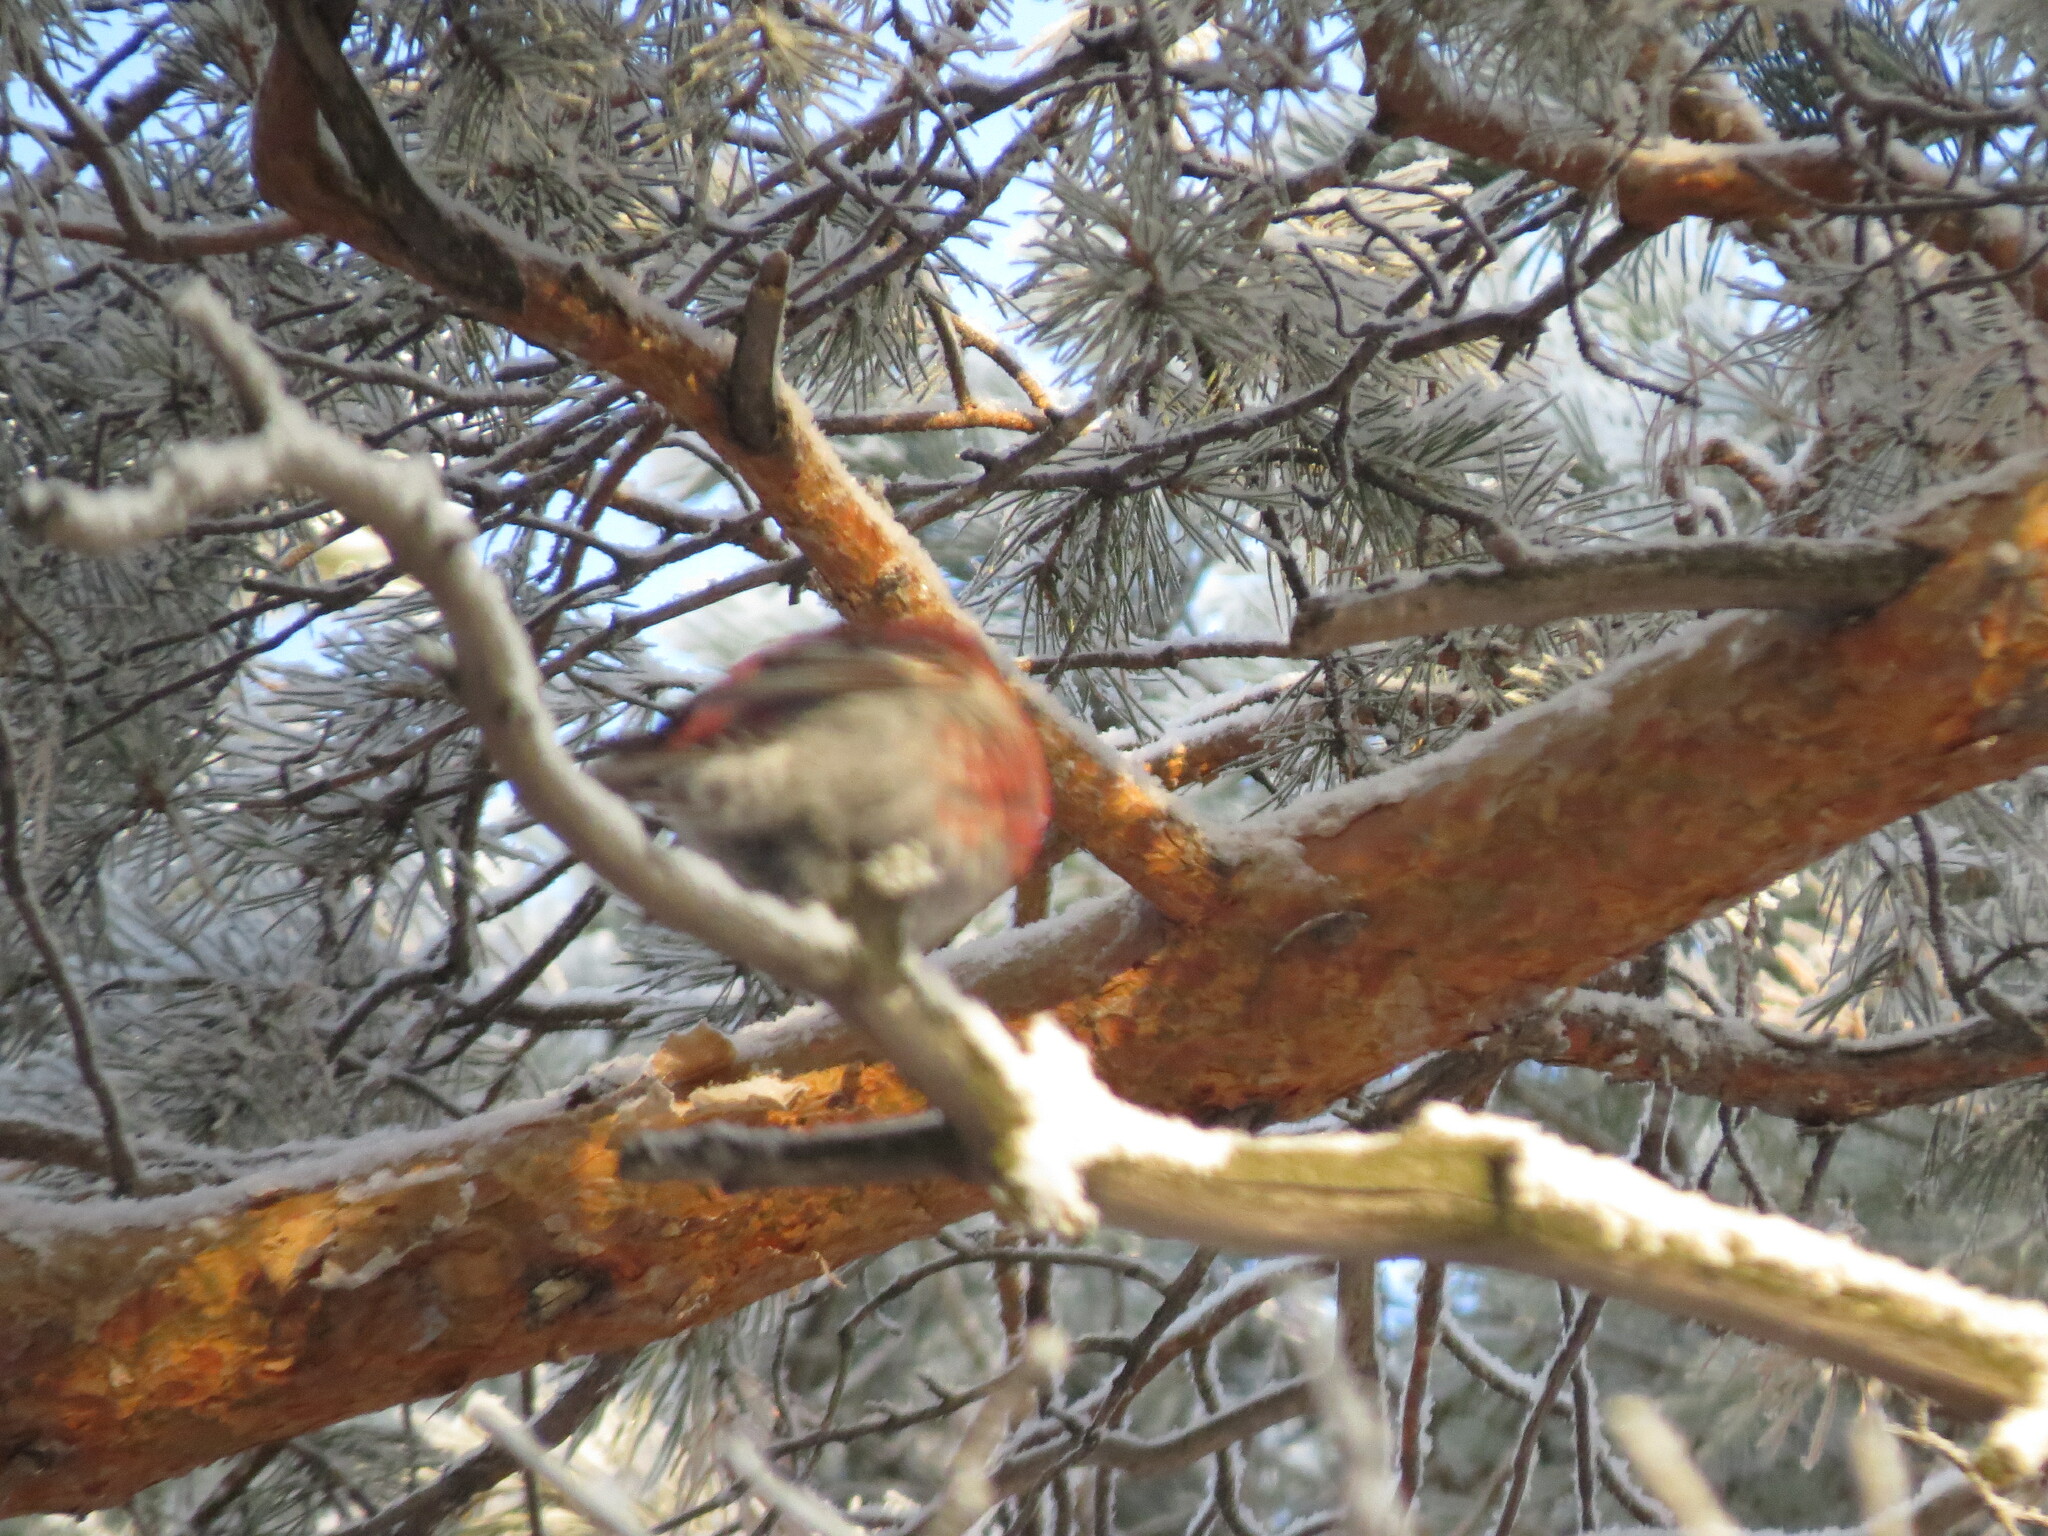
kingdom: Animalia
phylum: Chordata
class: Aves
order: Passeriformes
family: Fringillidae
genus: Pinicola
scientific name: Pinicola enucleator
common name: Pine grosbeak
